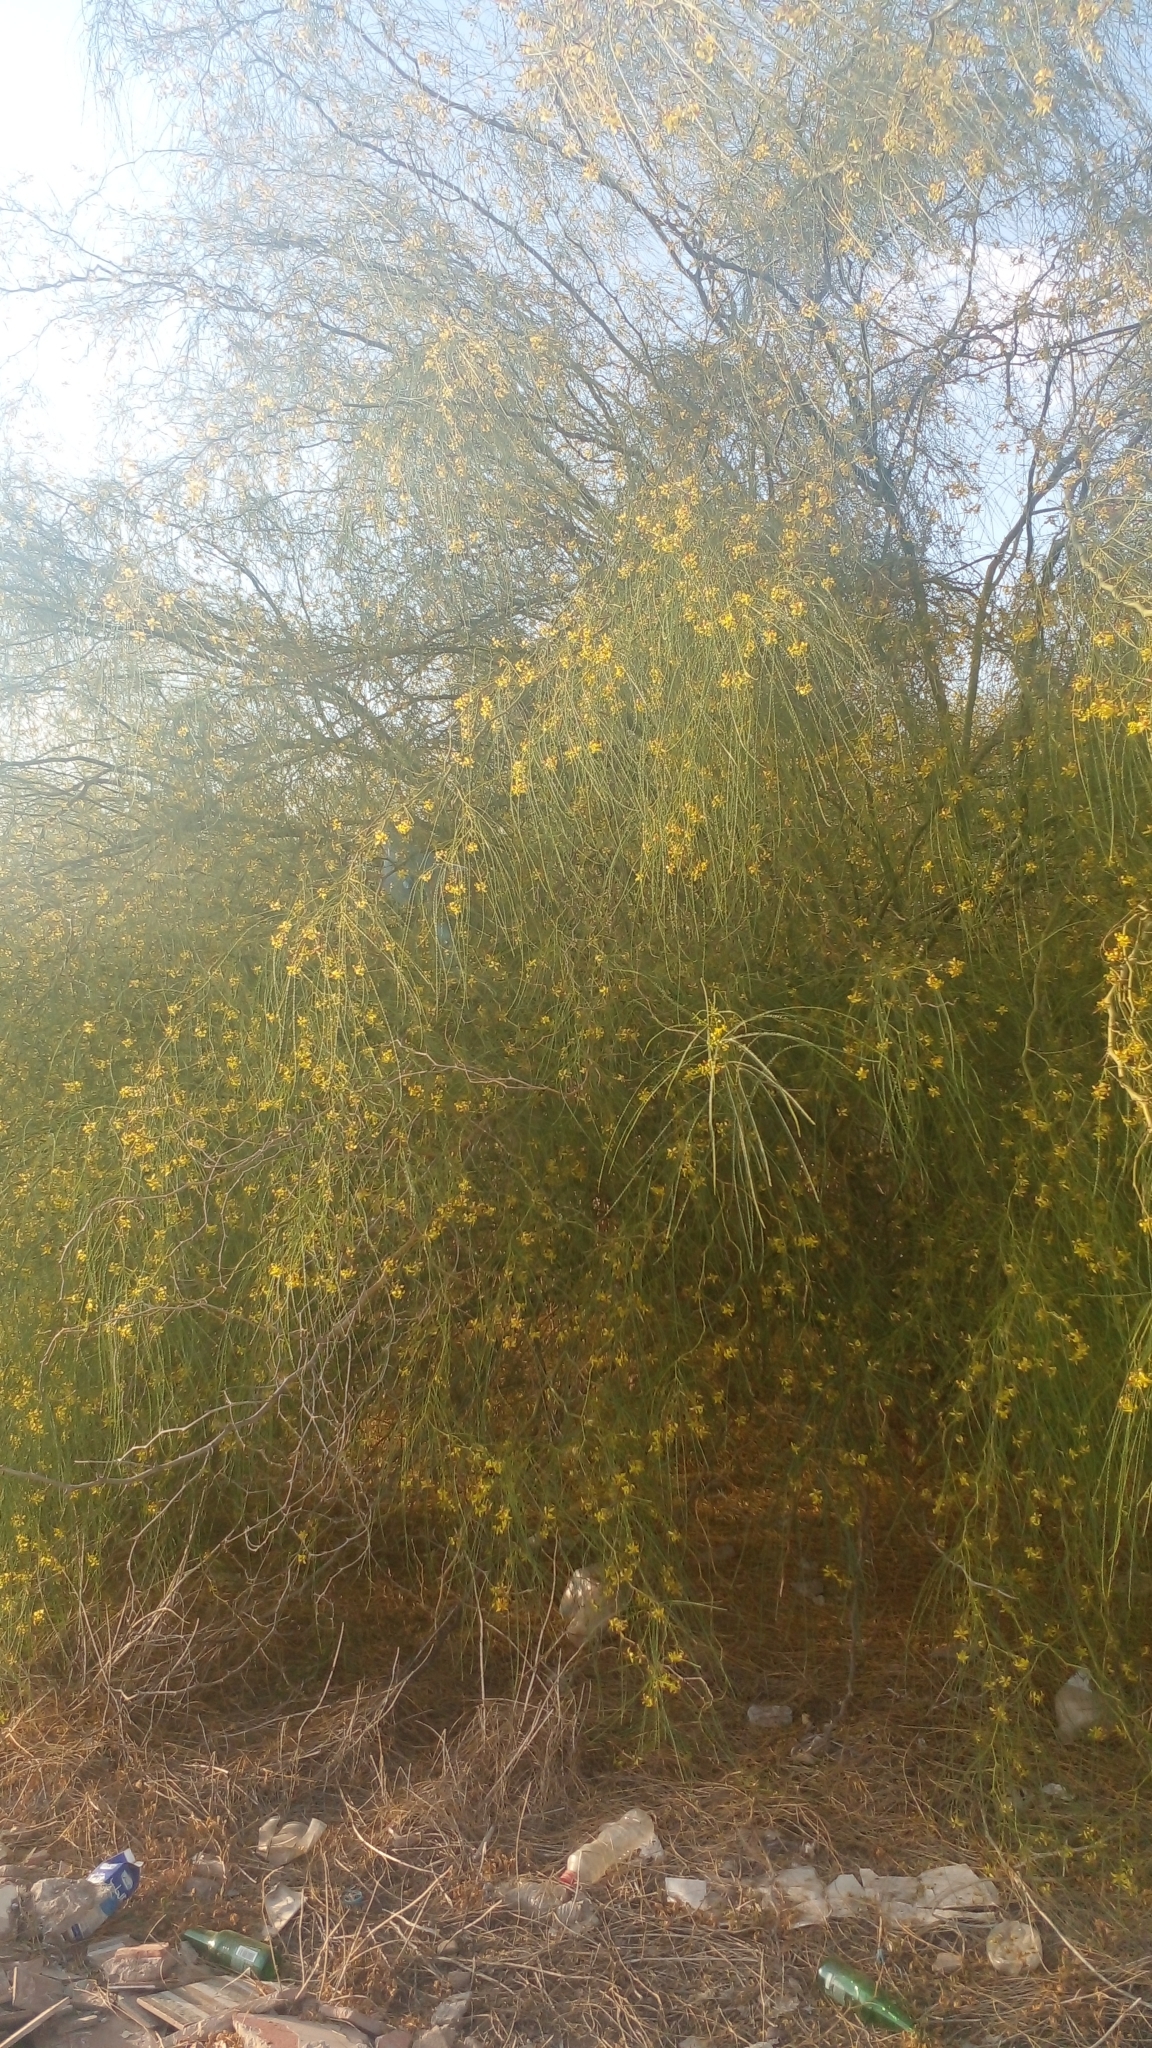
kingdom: Plantae
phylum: Tracheophyta
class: Magnoliopsida
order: Fabales
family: Fabaceae
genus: Parkinsonia
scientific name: Parkinsonia aculeata
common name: Jerusalem thorn
